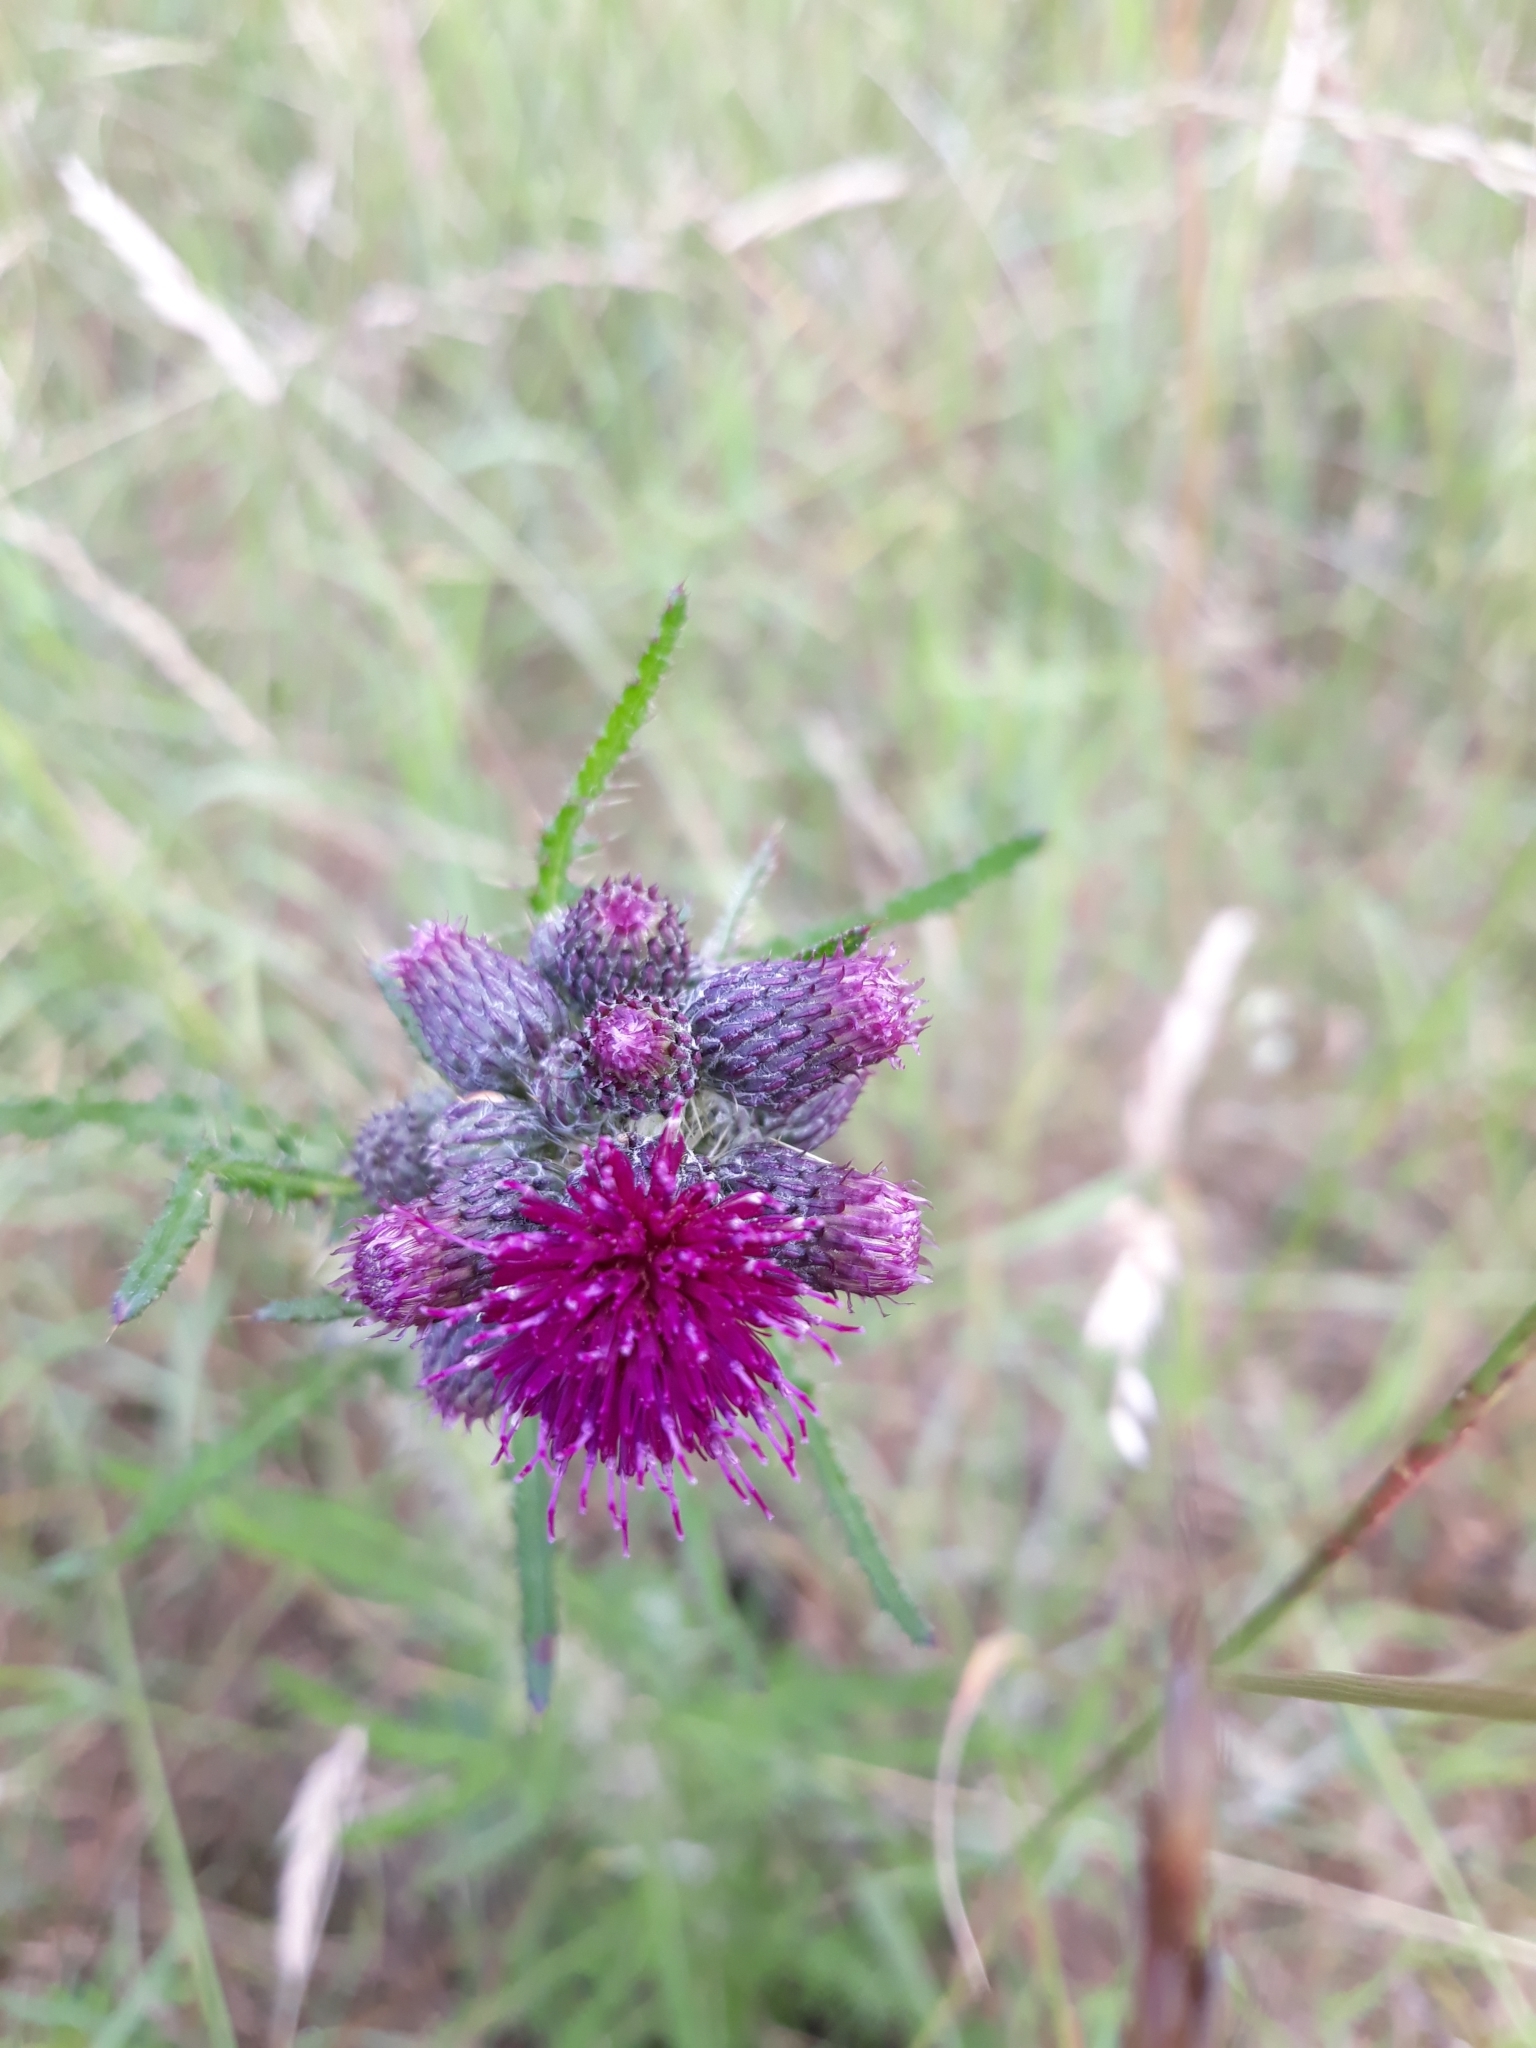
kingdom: Plantae
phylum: Tracheophyta
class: Magnoliopsida
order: Asterales
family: Asteraceae
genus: Cirsium
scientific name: Cirsium palustre
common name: Marsh thistle
